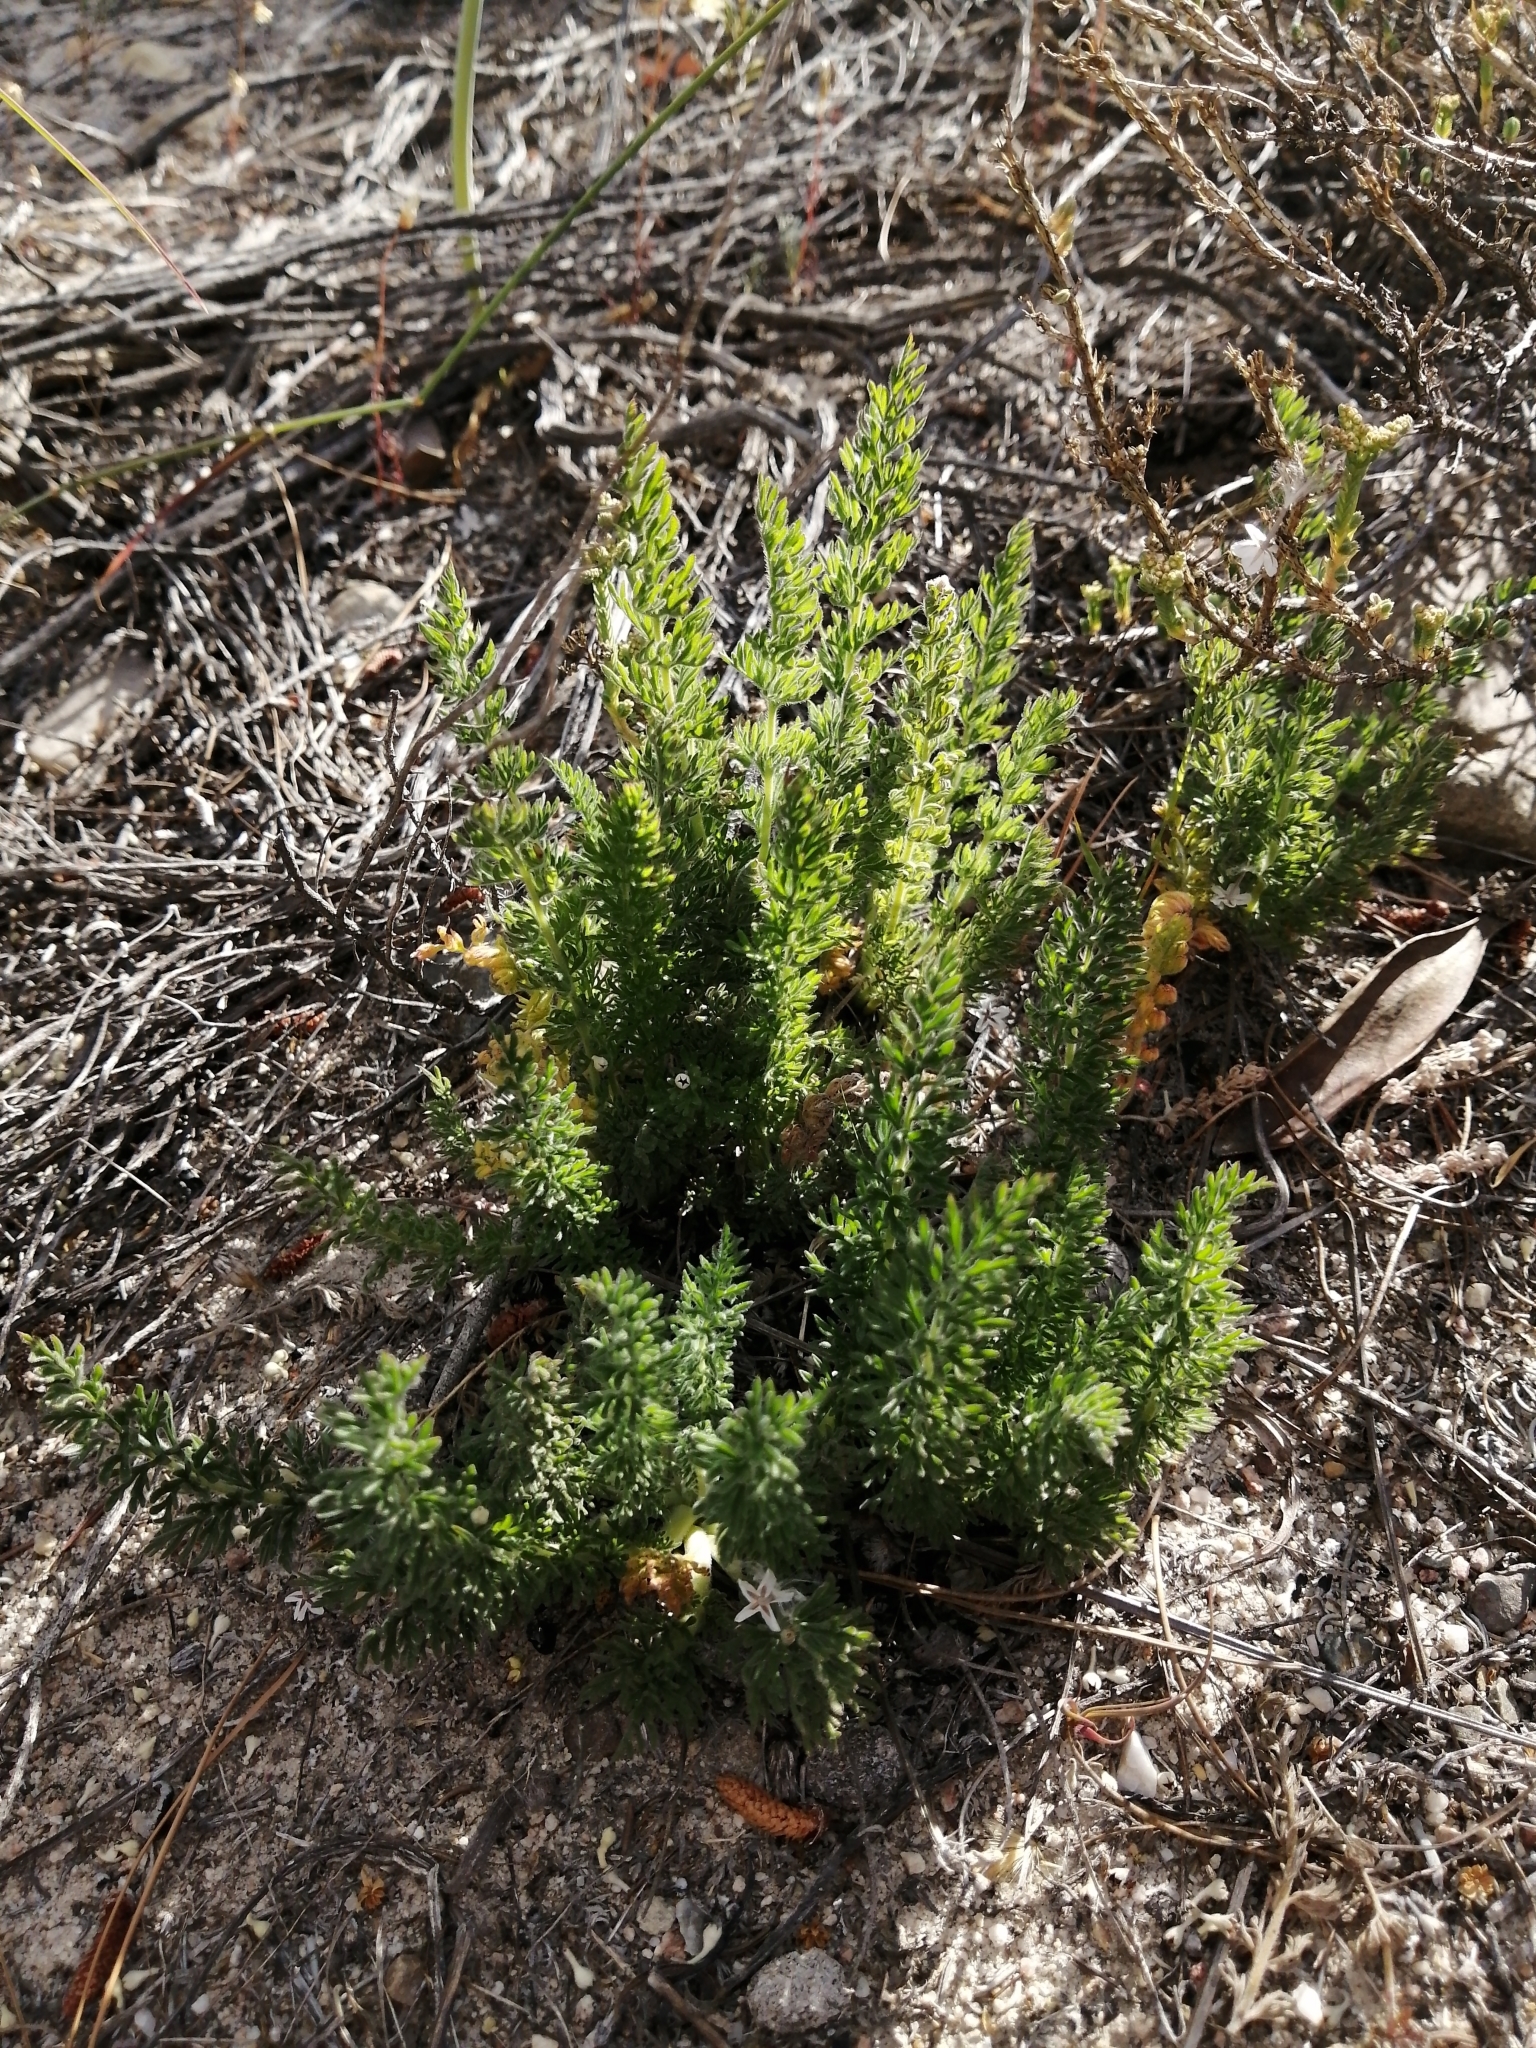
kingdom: Plantae
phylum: Tracheophyta
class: Magnoliopsida
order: Geraniales
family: Geraniaceae
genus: Pelargonium
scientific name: Pelargonium rapaceum
